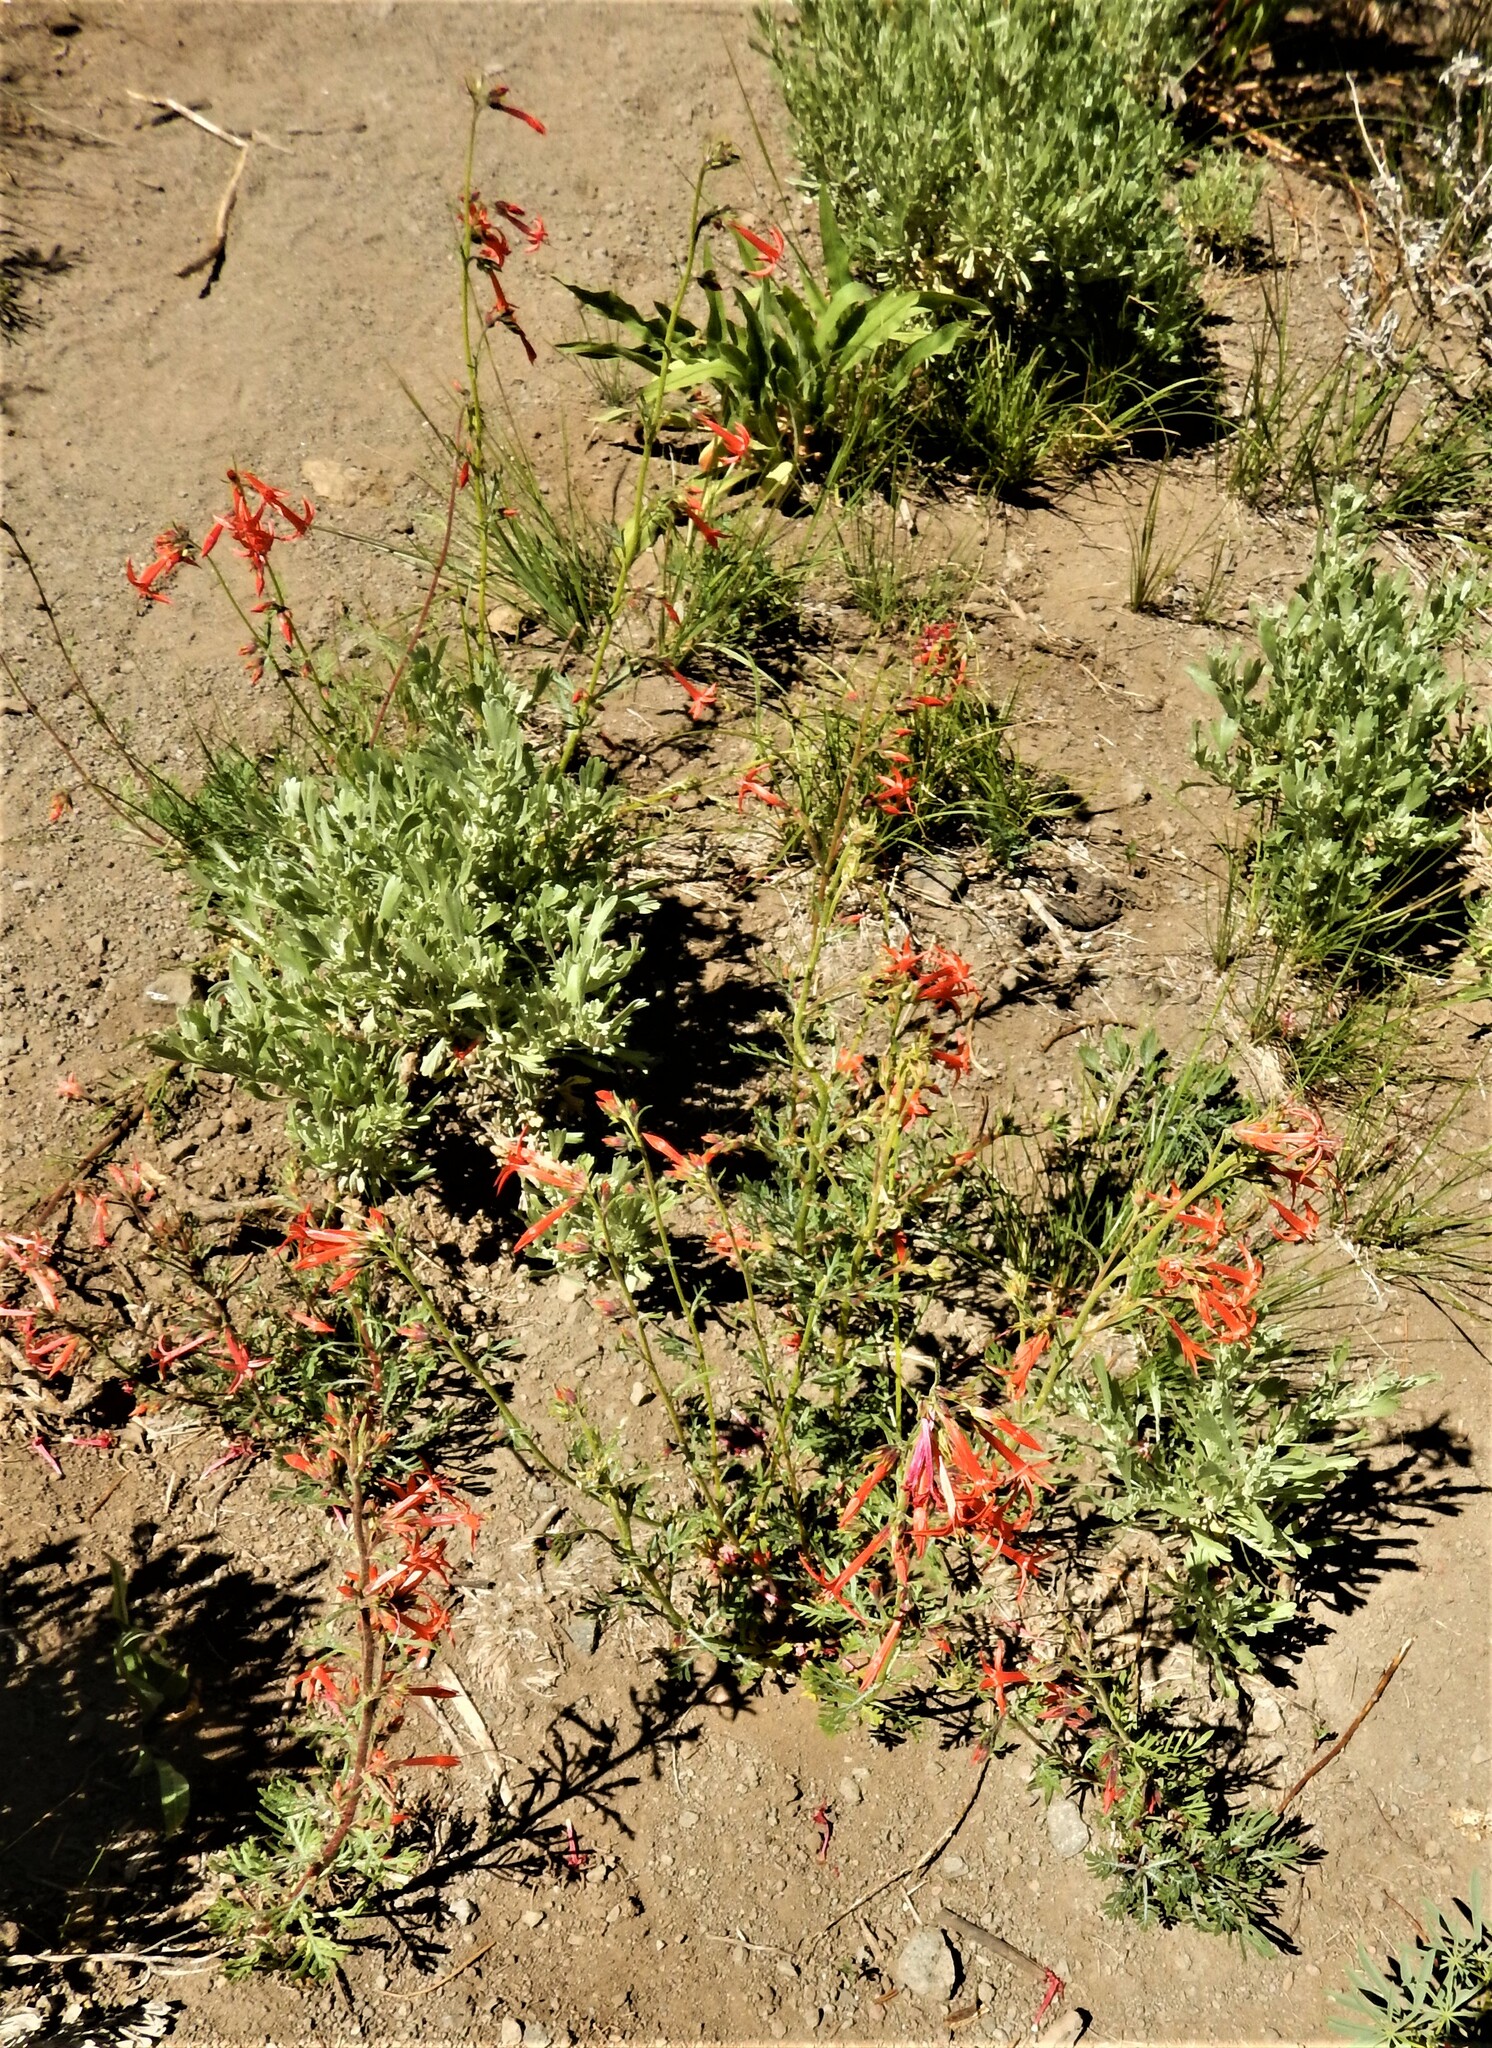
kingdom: Plantae
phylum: Tracheophyta
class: Magnoliopsida
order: Ericales
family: Polemoniaceae
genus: Ipomopsis
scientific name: Ipomopsis aggregata
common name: Scarlet gilia
